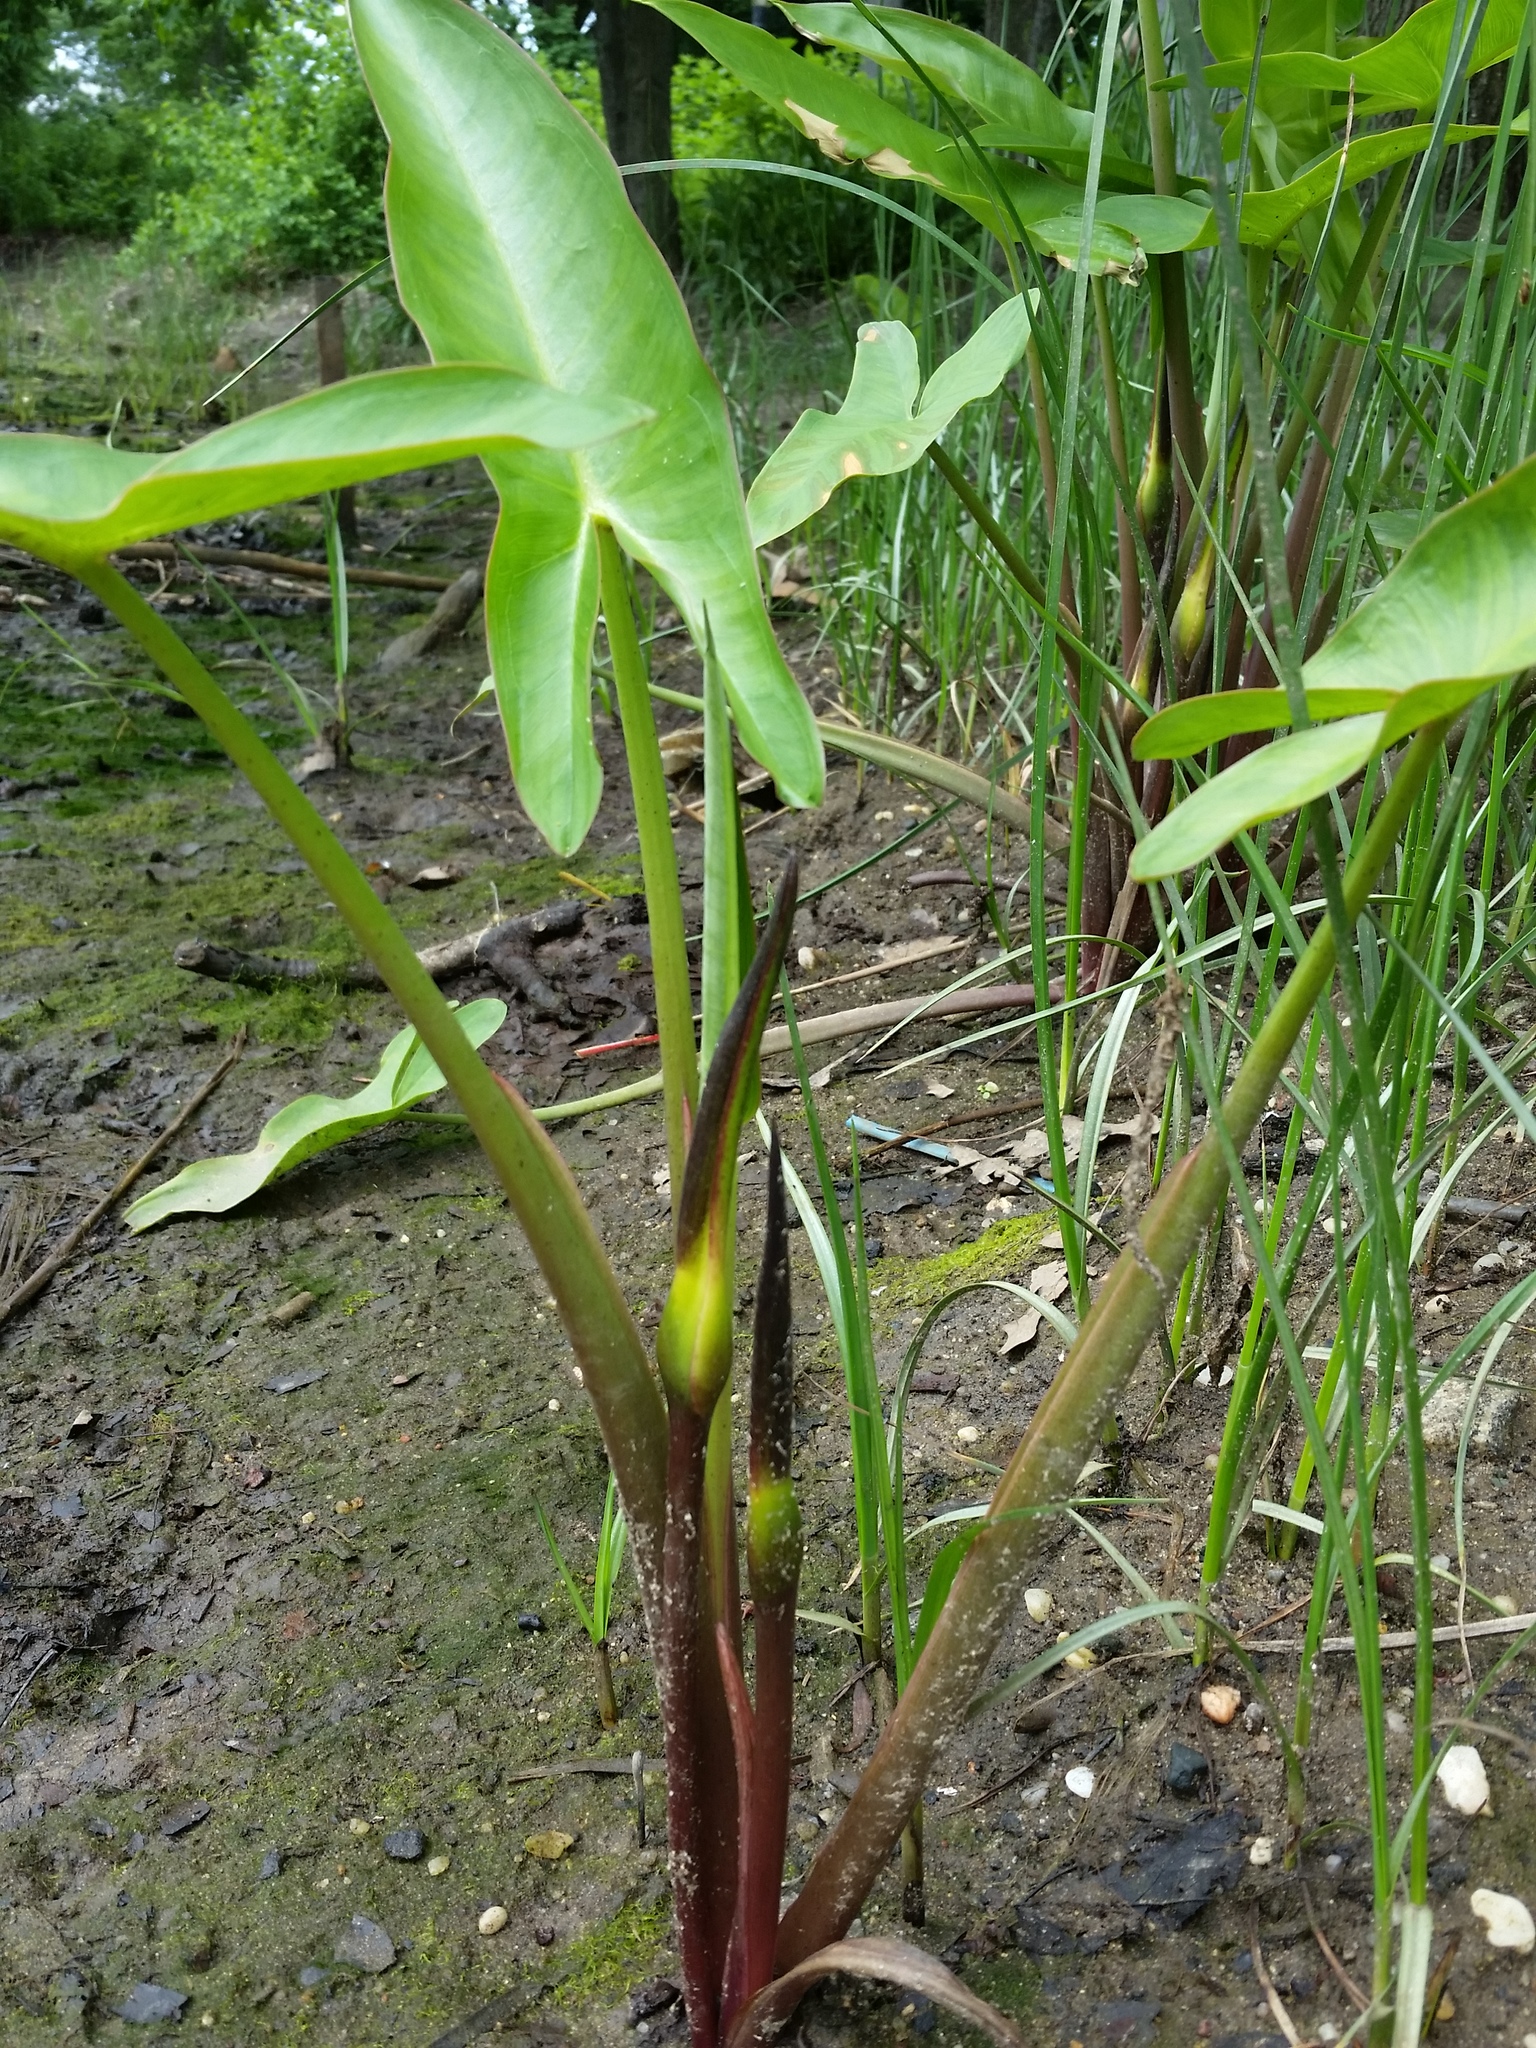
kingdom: Plantae
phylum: Tracheophyta
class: Liliopsida
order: Alismatales
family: Araceae
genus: Peltandra
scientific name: Peltandra virginica
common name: Arrow arum
